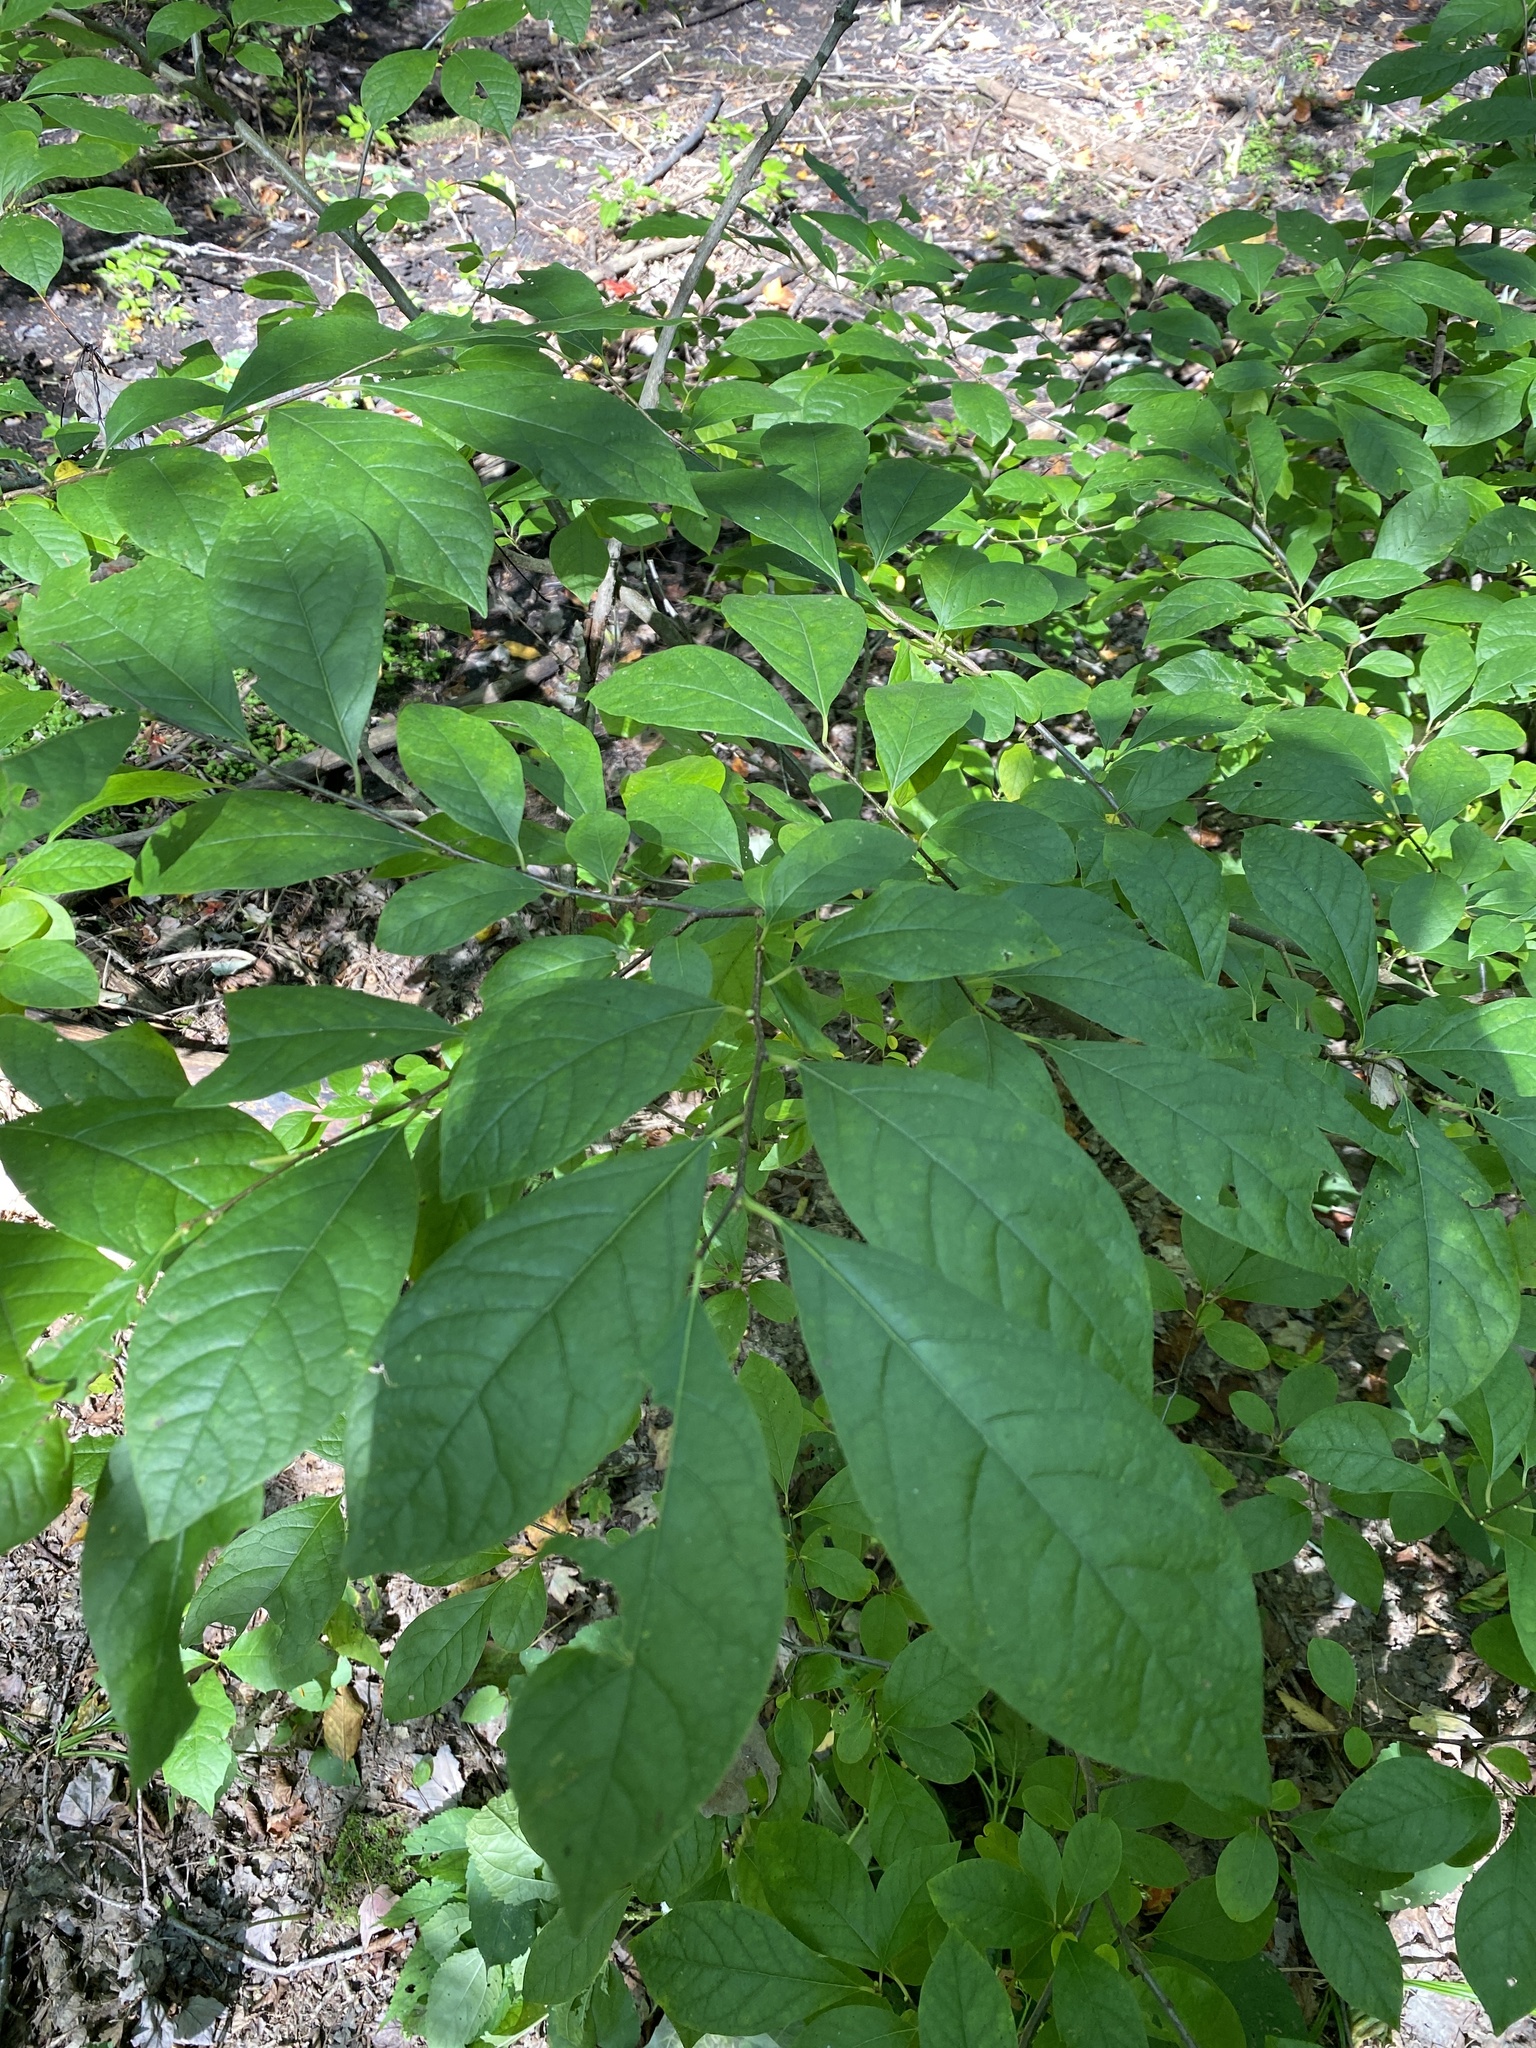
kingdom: Plantae
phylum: Tracheophyta
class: Magnoliopsida
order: Laurales
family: Lauraceae
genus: Lindera
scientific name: Lindera benzoin
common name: Spicebush
